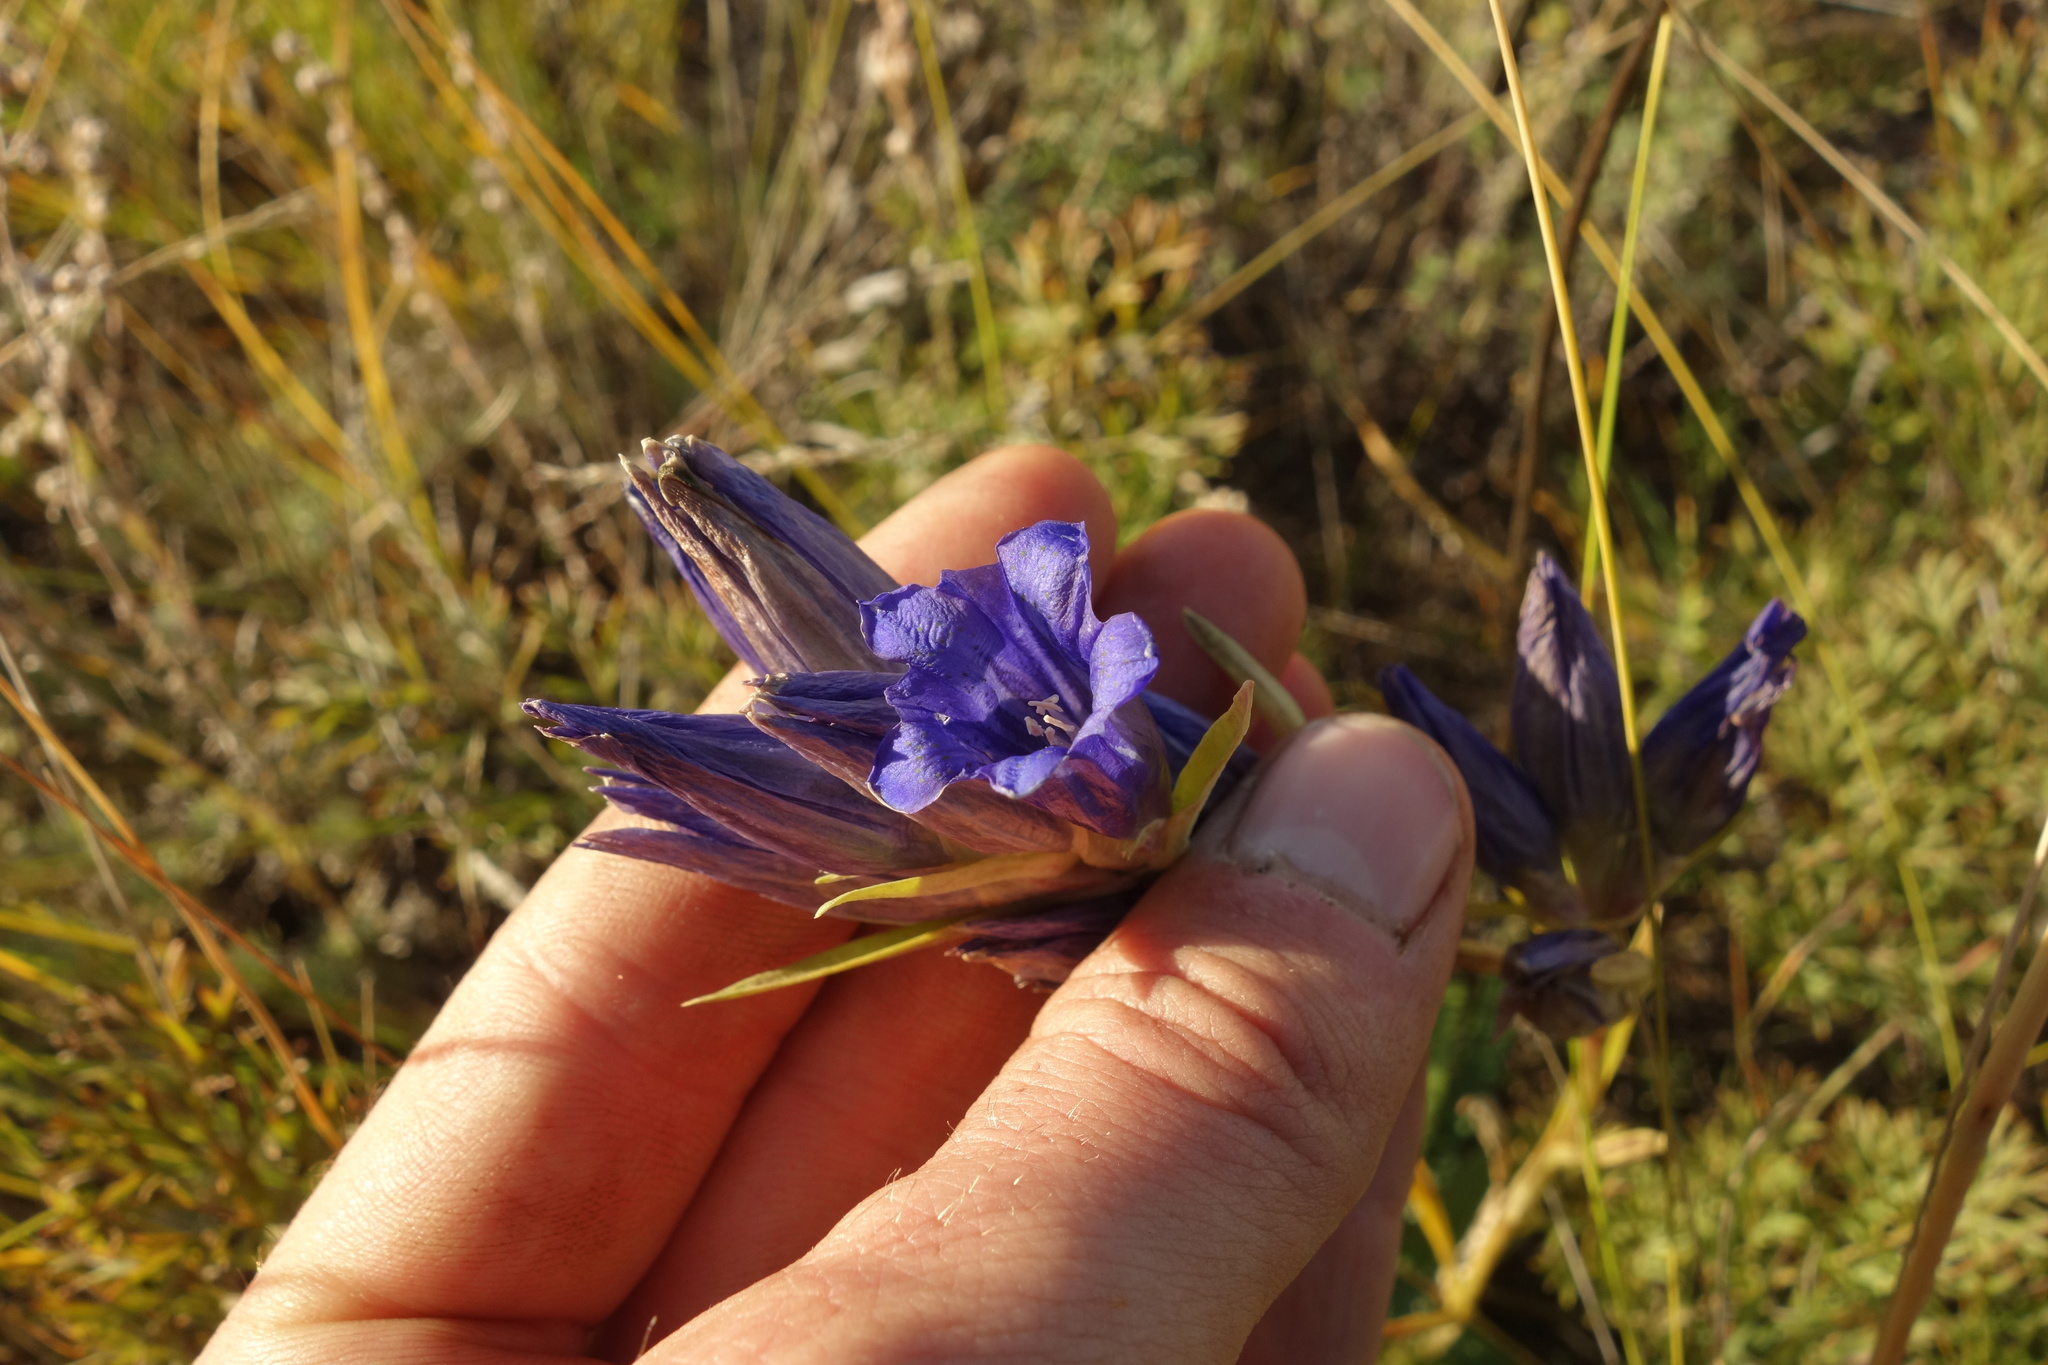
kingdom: Plantae
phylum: Tracheophyta
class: Magnoliopsida
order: Gentianales
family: Gentianaceae
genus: Gentiana
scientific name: Gentiana decumbens
